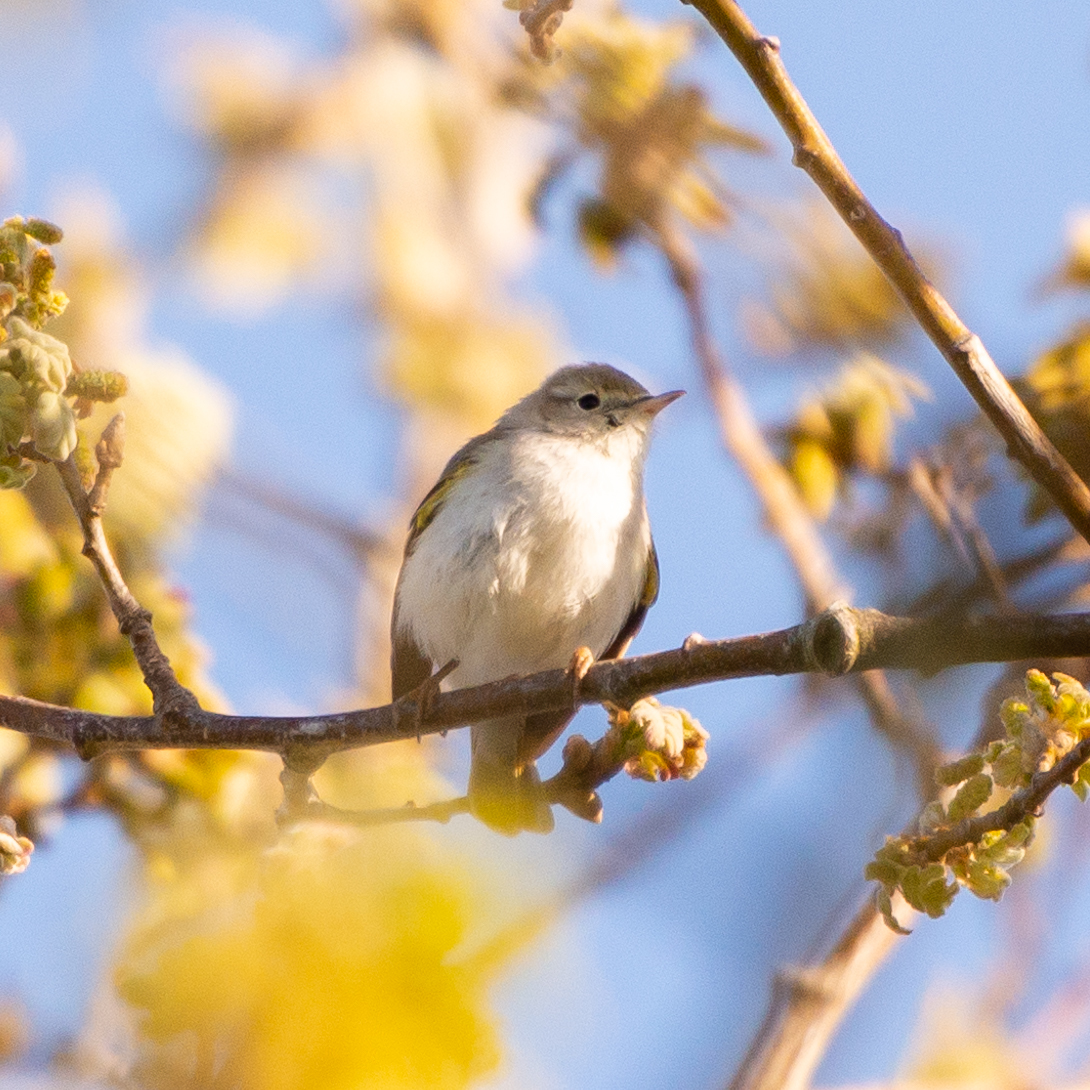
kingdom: Animalia
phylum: Chordata
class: Aves
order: Passeriformes
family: Phylloscopidae
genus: Phylloscopus
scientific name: Phylloscopus bonelli
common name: Western bonelli's warbler
